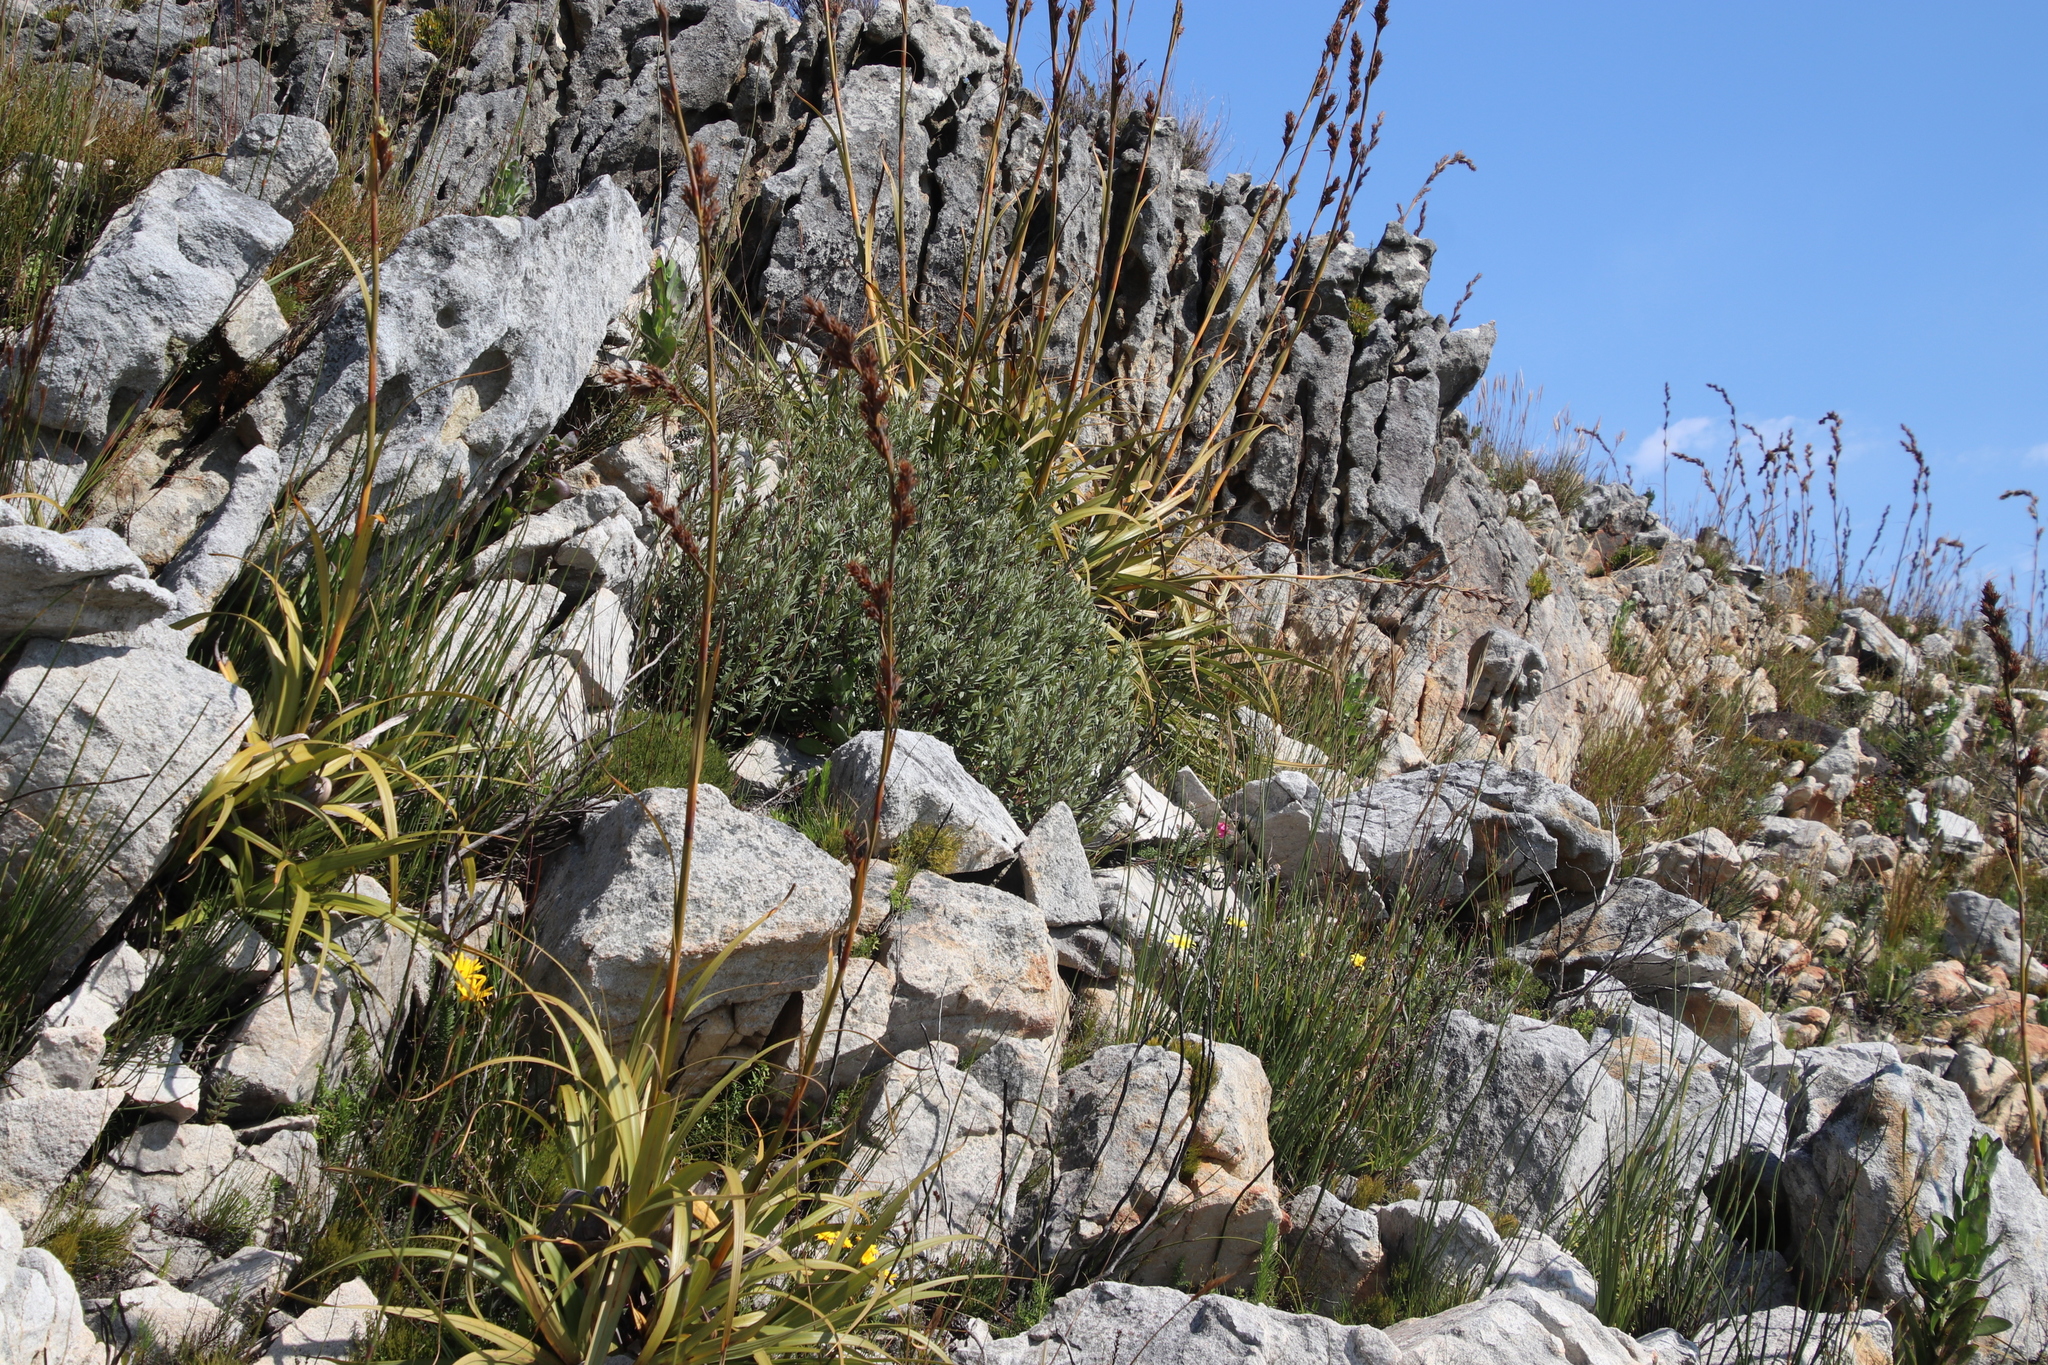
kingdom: Plantae
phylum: Tracheophyta
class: Magnoliopsida
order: Cornales
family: Grubbiaceae
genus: Grubbia
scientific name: Grubbia tomentosa
